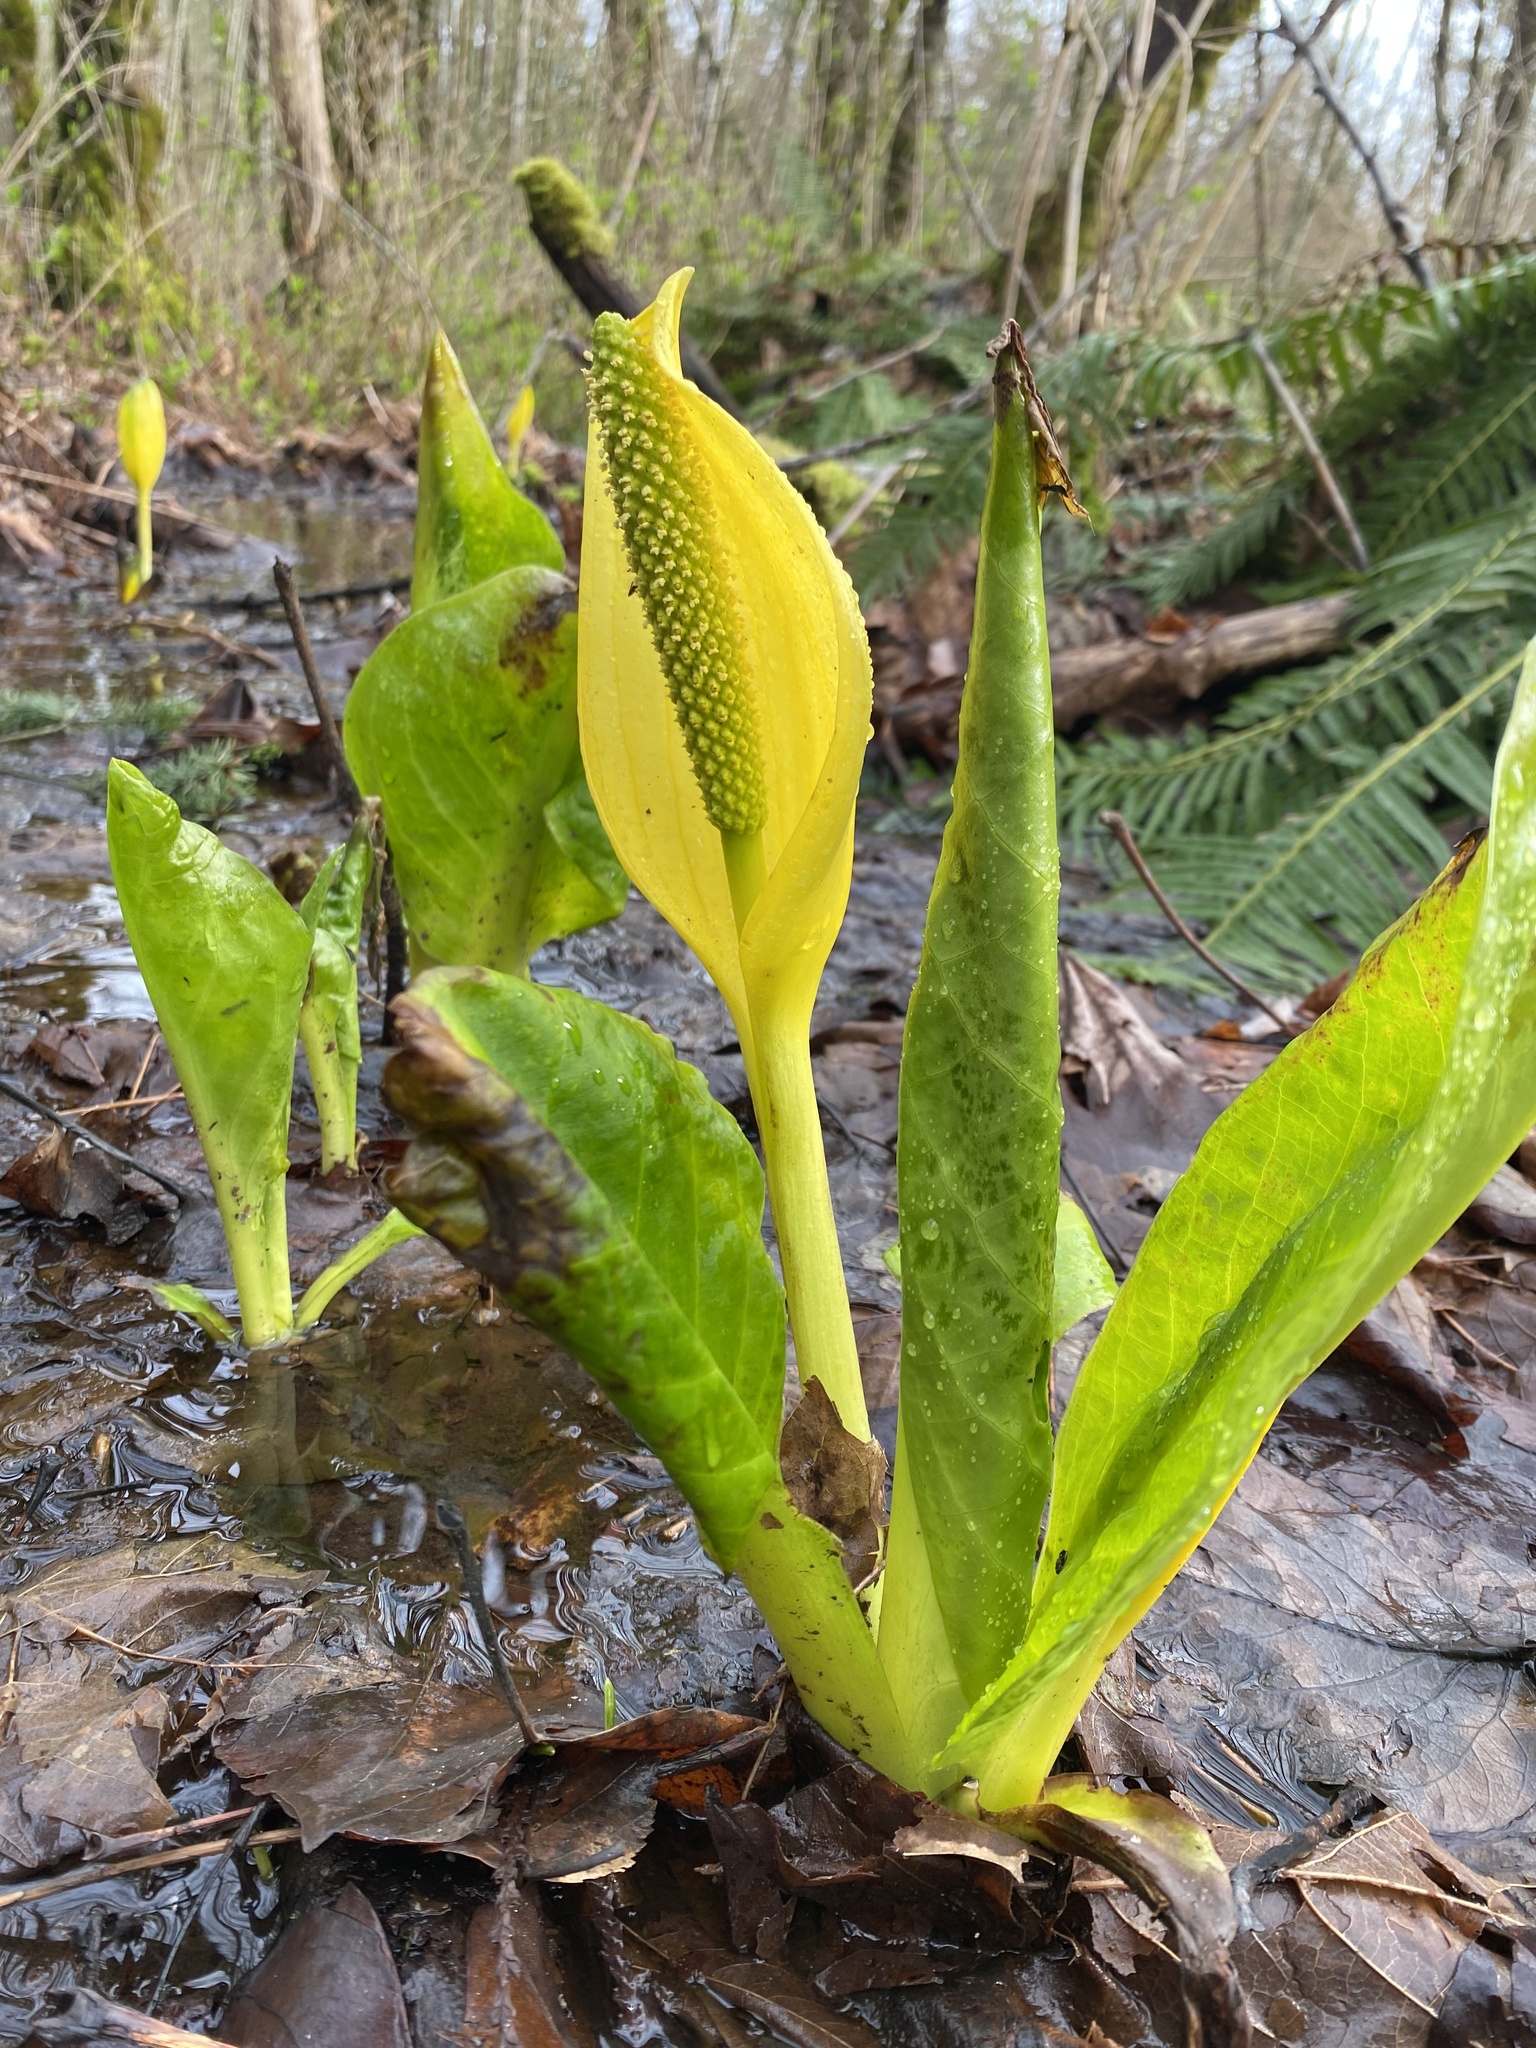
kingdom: Plantae
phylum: Tracheophyta
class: Liliopsida
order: Alismatales
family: Araceae
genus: Lysichiton
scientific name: Lysichiton americanus
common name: American skunk cabbage
